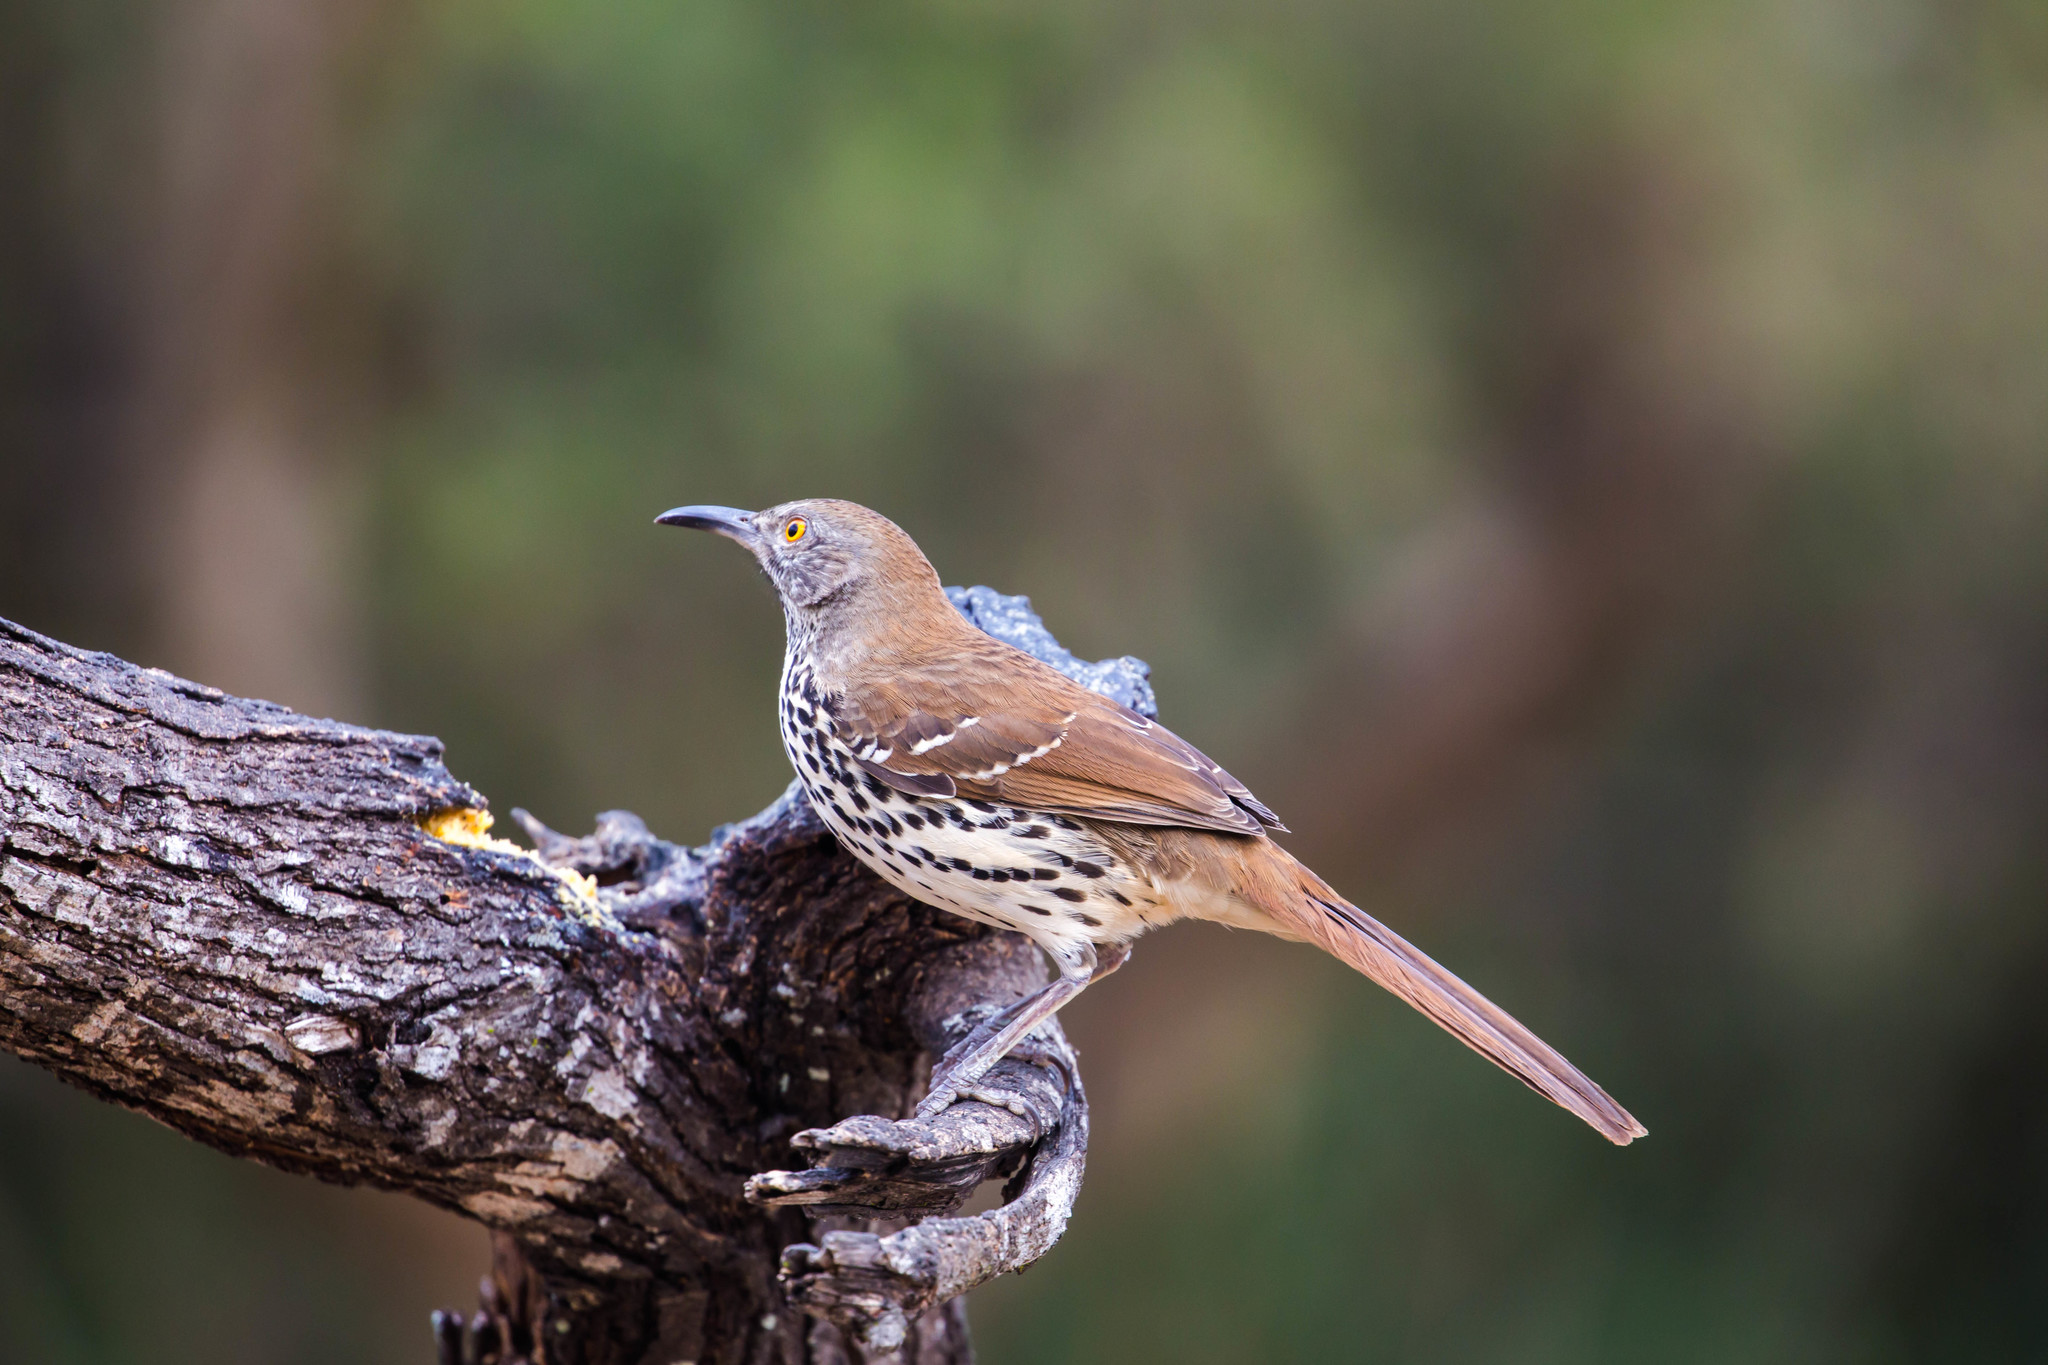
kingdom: Animalia
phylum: Chordata
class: Aves
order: Passeriformes
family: Mimidae
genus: Toxostoma
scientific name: Toxostoma longirostre
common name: Long-billed thrasher
